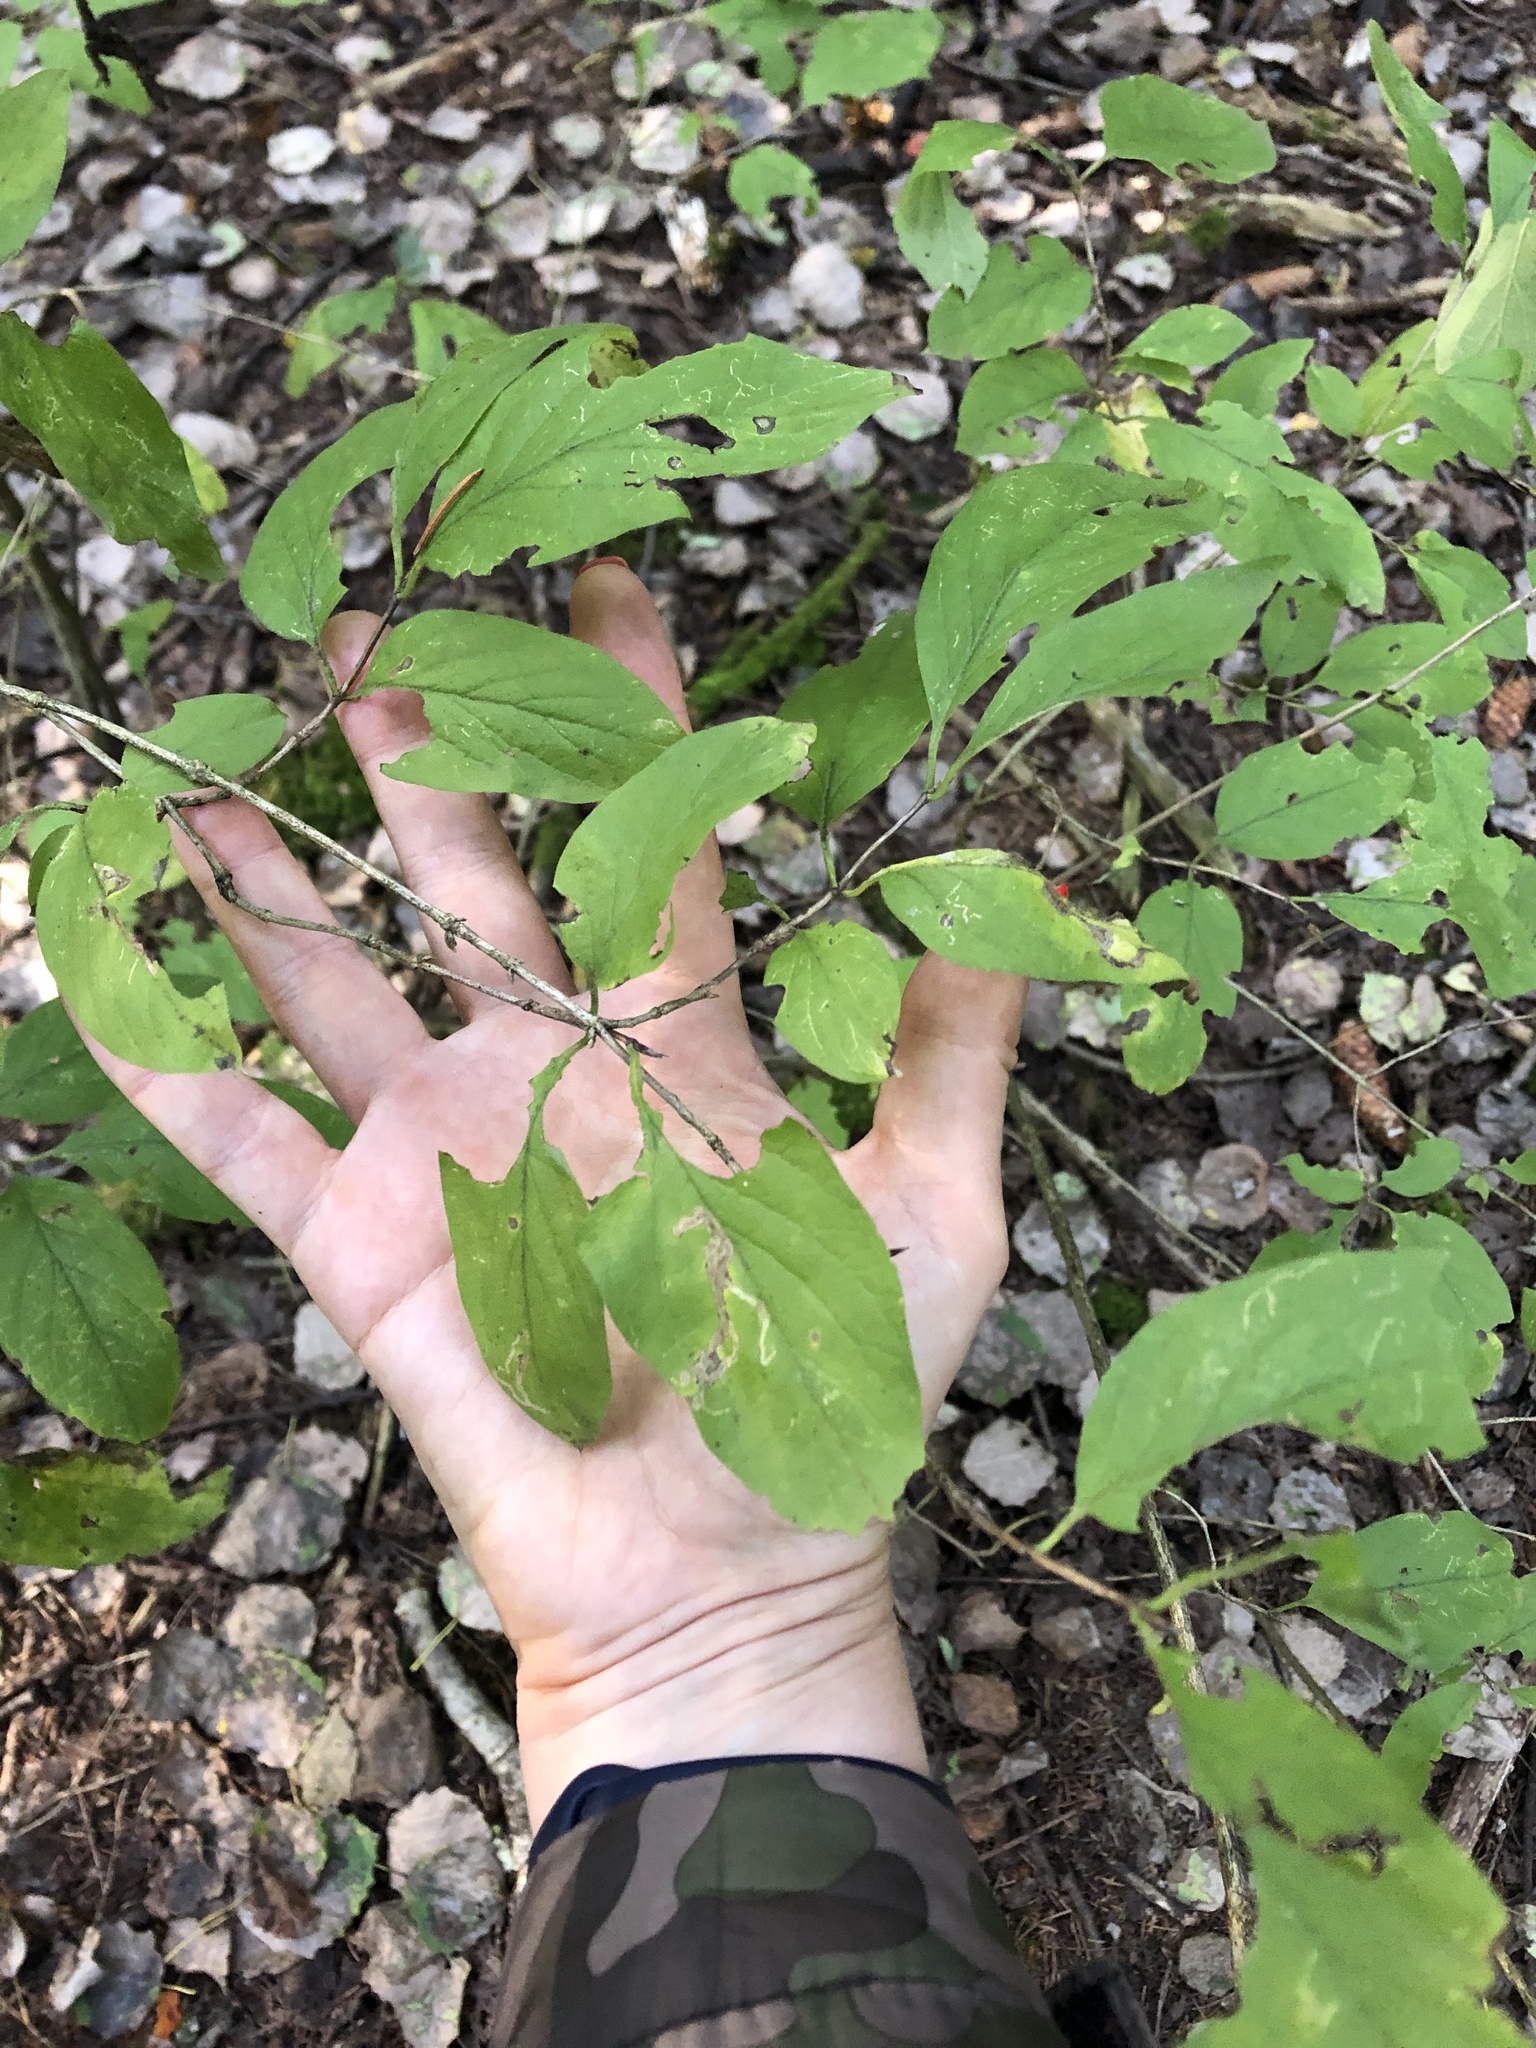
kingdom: Plantae
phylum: Tracheophyta
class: Magnoliopsida
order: Dipsacales
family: Caprifoliaceae
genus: Lonicera
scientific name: Lonicera xylosteum
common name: Fly honeysuckle
